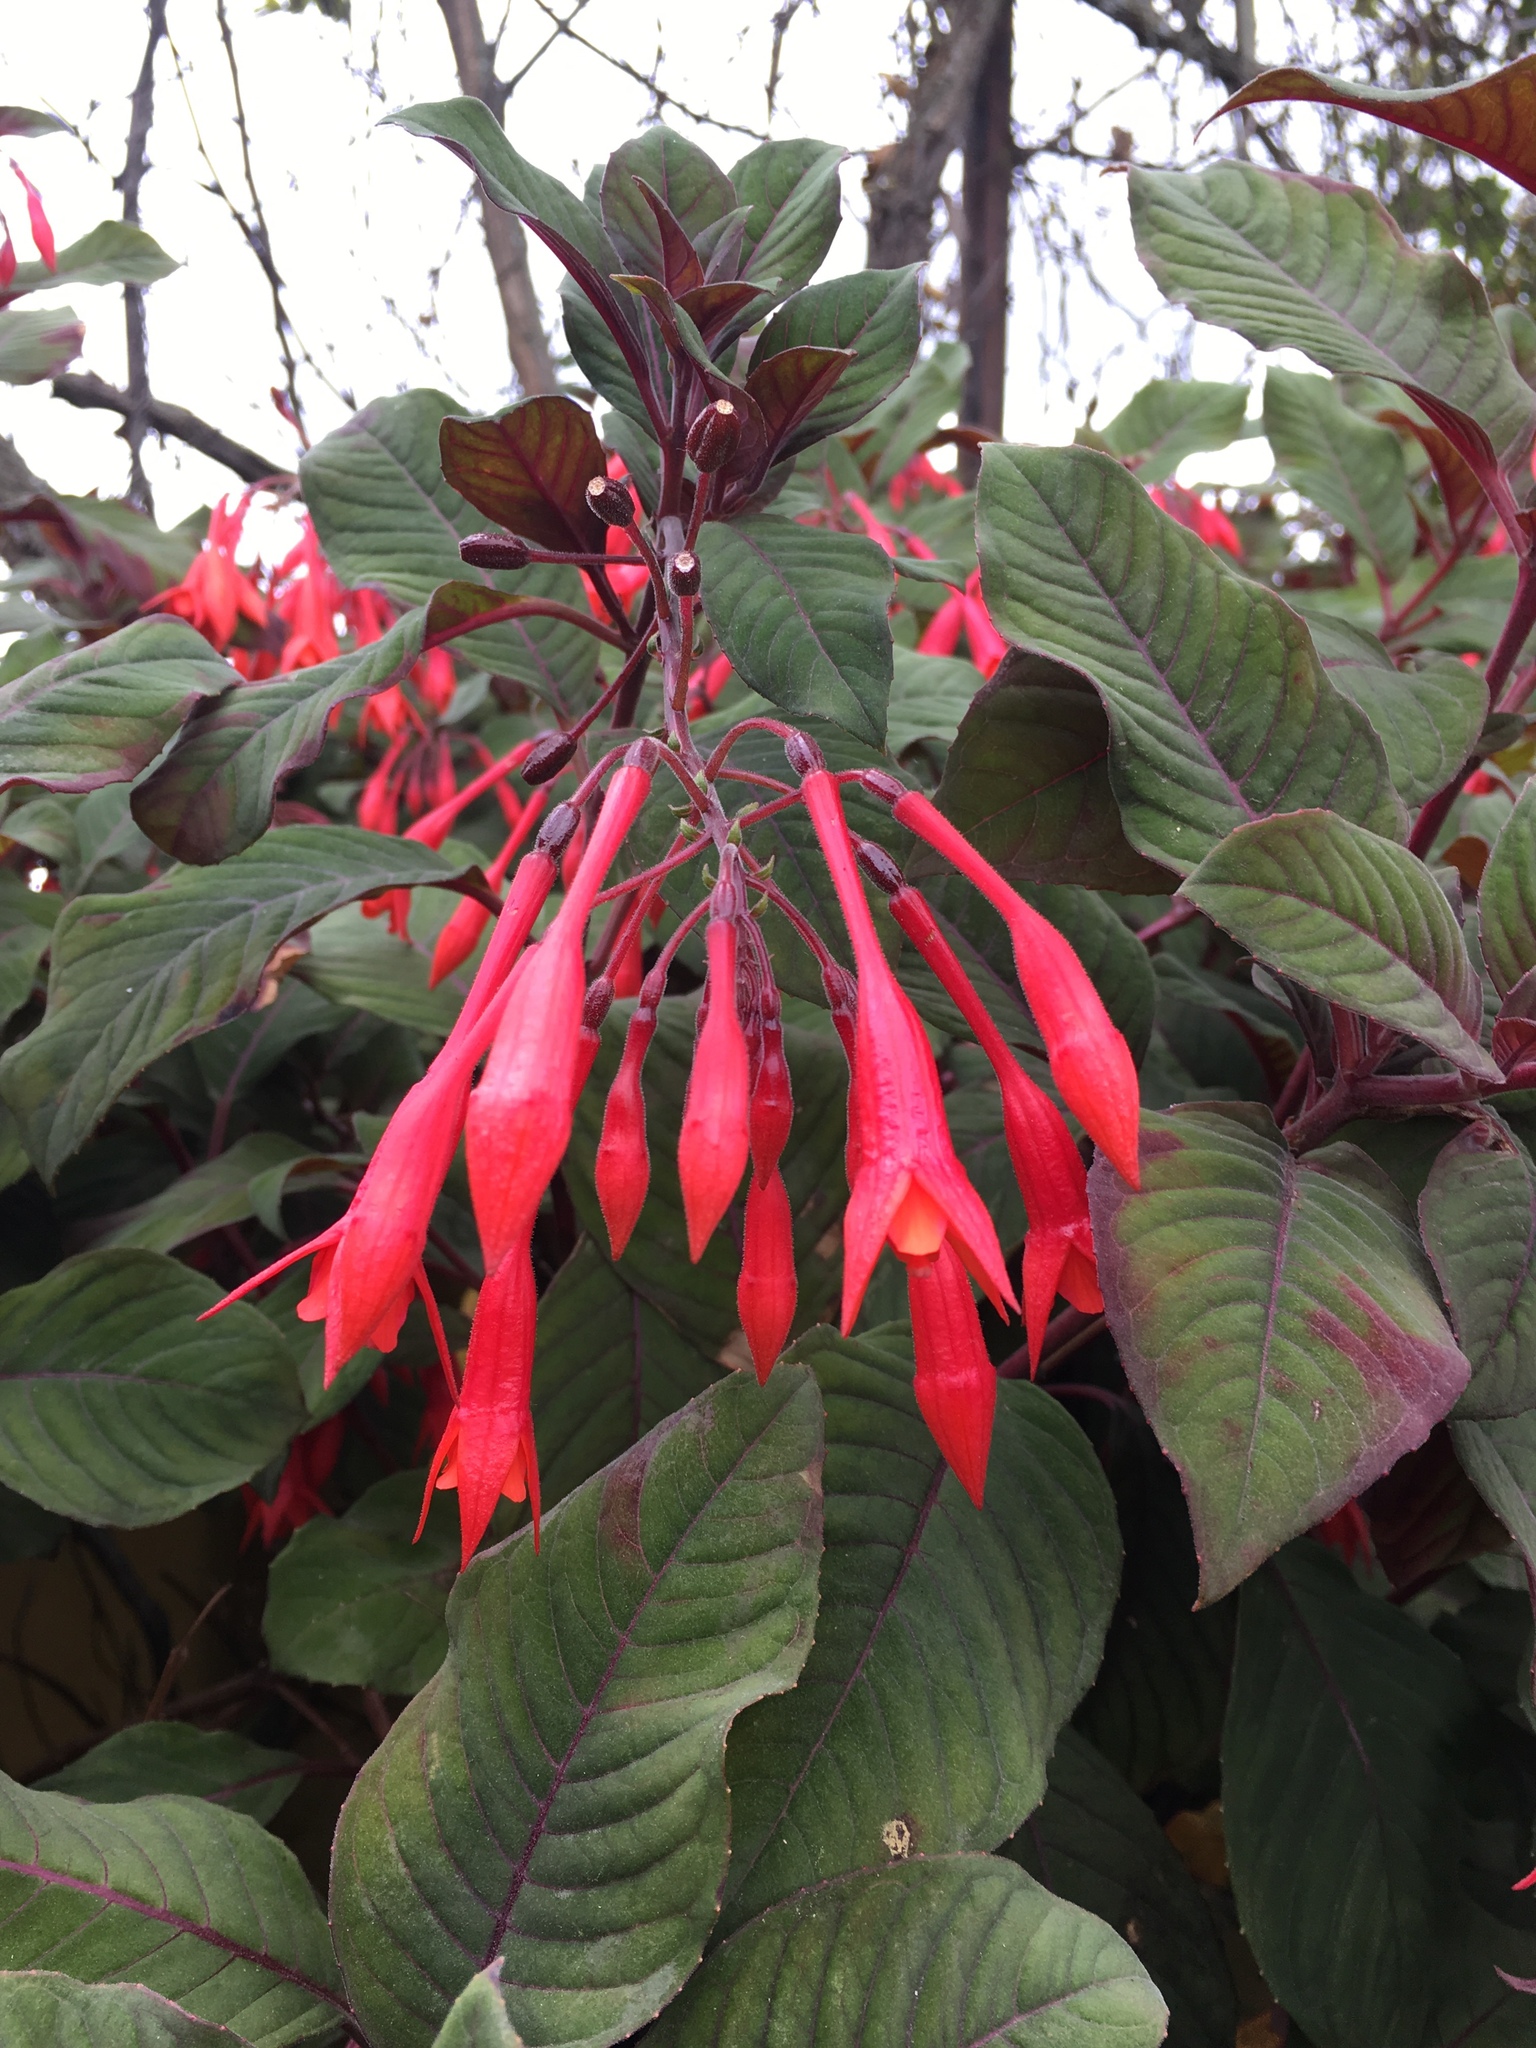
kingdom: Plantae
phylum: Tracheophyta
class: Magnoliopsida
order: Myrtales
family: Onagraceae
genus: Fuchsia
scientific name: Fuchsia triphylla
